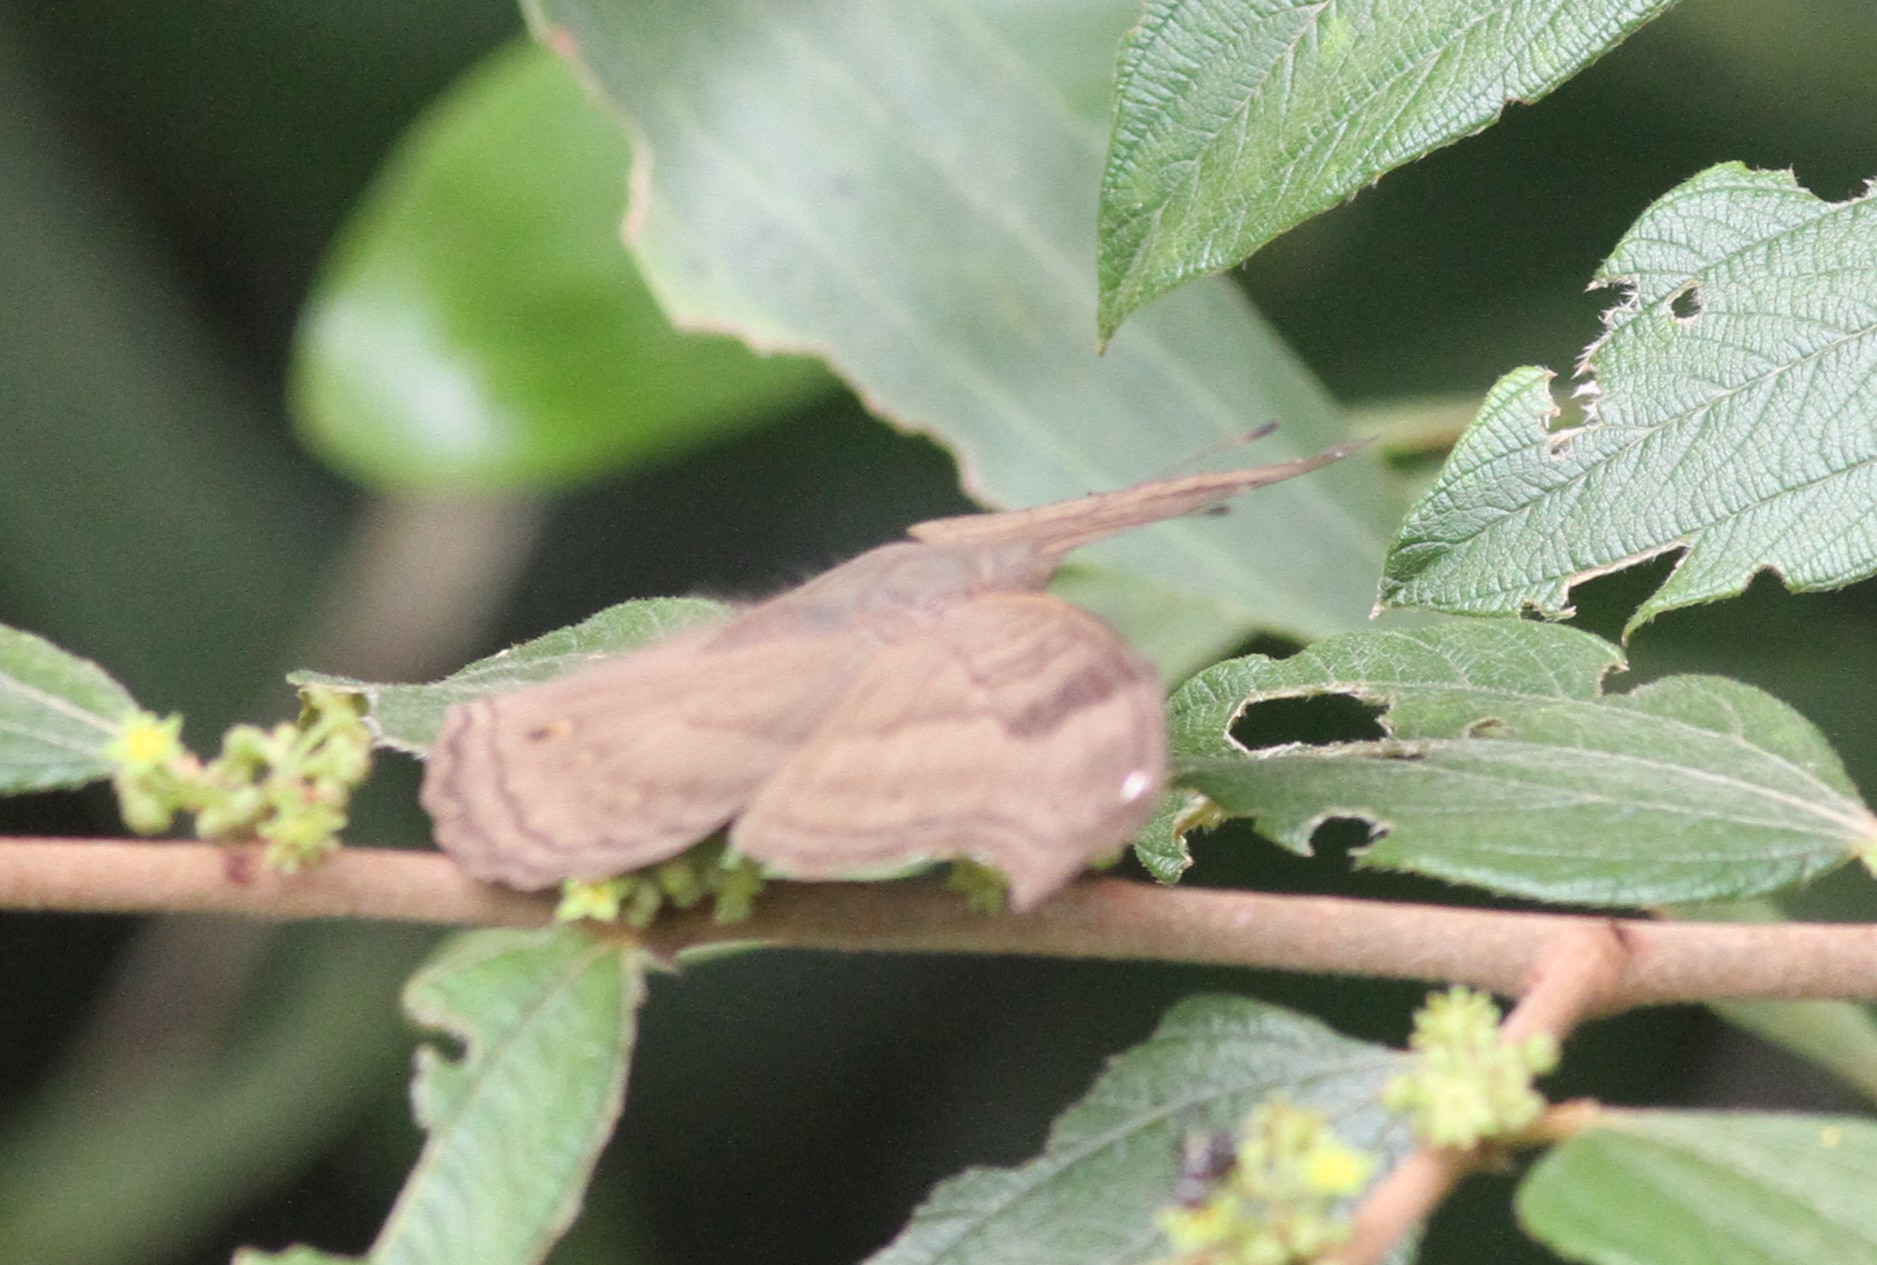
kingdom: Animalia
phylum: Arthropoda
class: Insecta
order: Lepidoptera
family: Nymphalidae
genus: Junonia
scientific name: Junonia iphita
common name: Chocolate pansy
